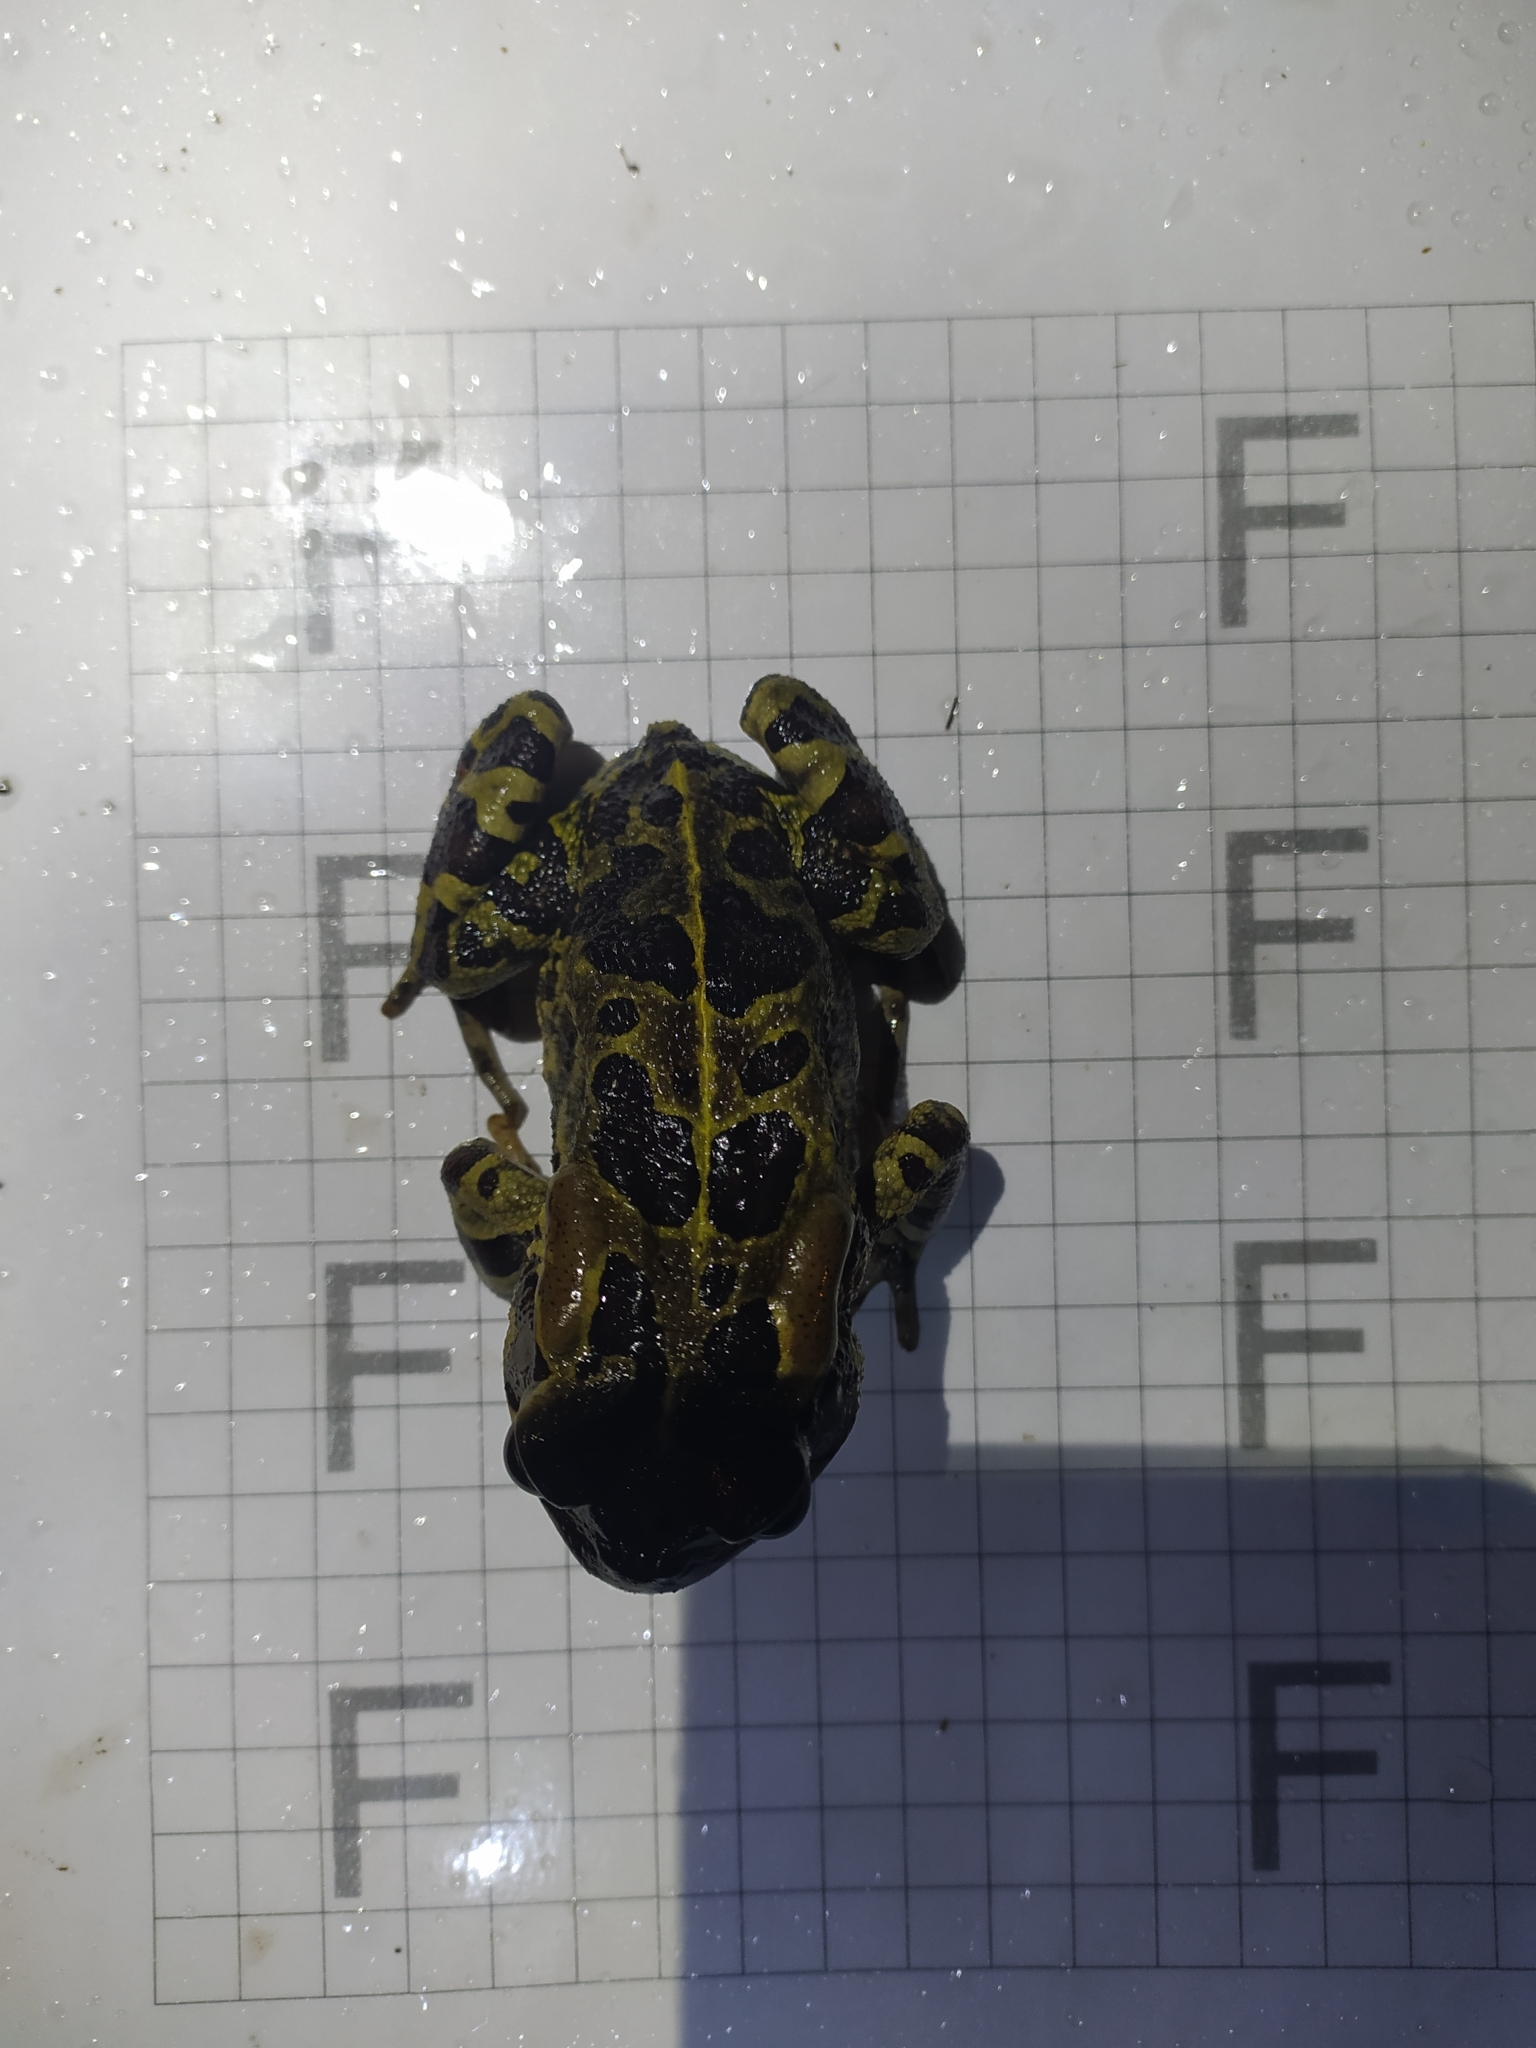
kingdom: Animalia
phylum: Chordata
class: Amphibia
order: Anura
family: Bufonidae
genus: Sclerophrys
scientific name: Sclerophrys pantherina
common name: Panther toad
